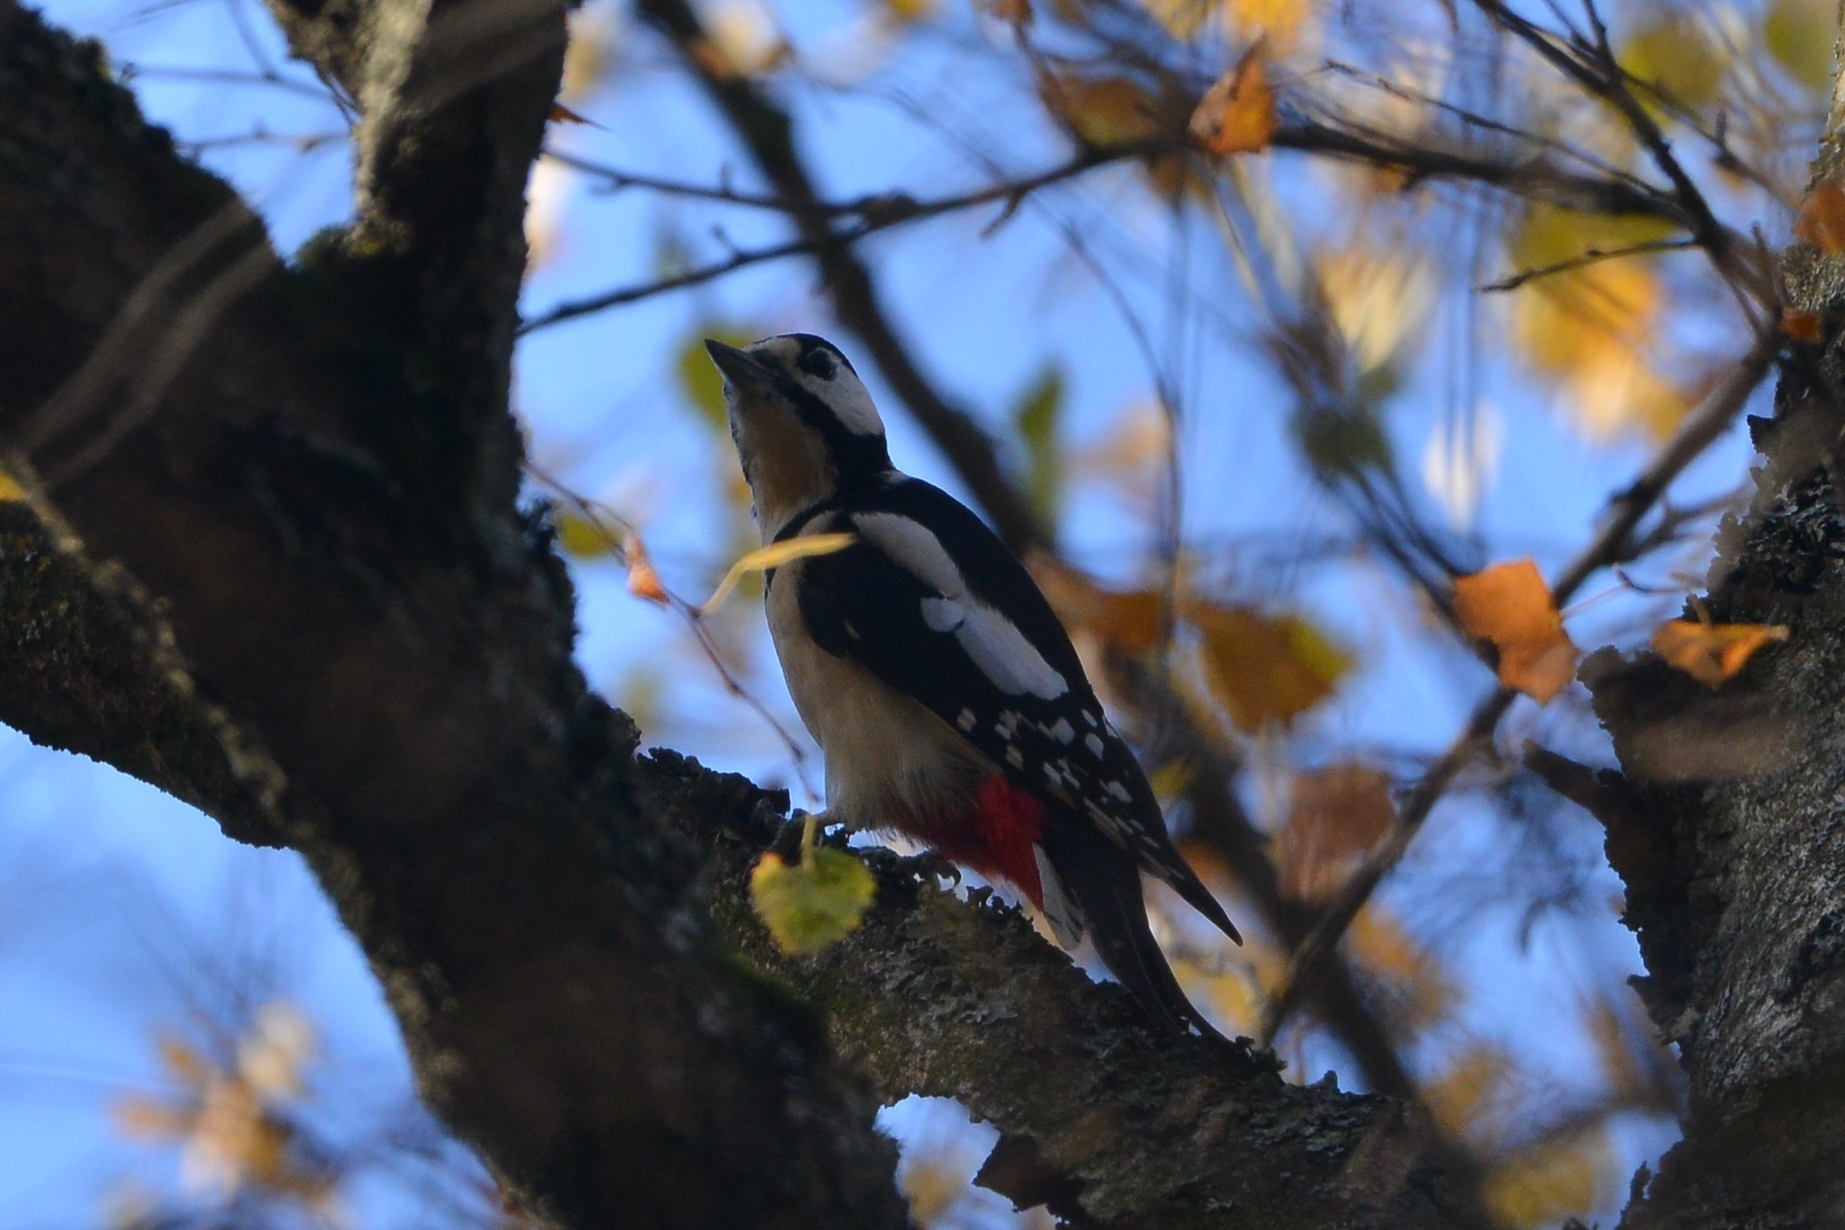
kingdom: Animalia
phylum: Chordata
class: Aves
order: Piciformes
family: Picidae
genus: Dendrocopos
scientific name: Dendrocopos major
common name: Great spotted woodpecker
